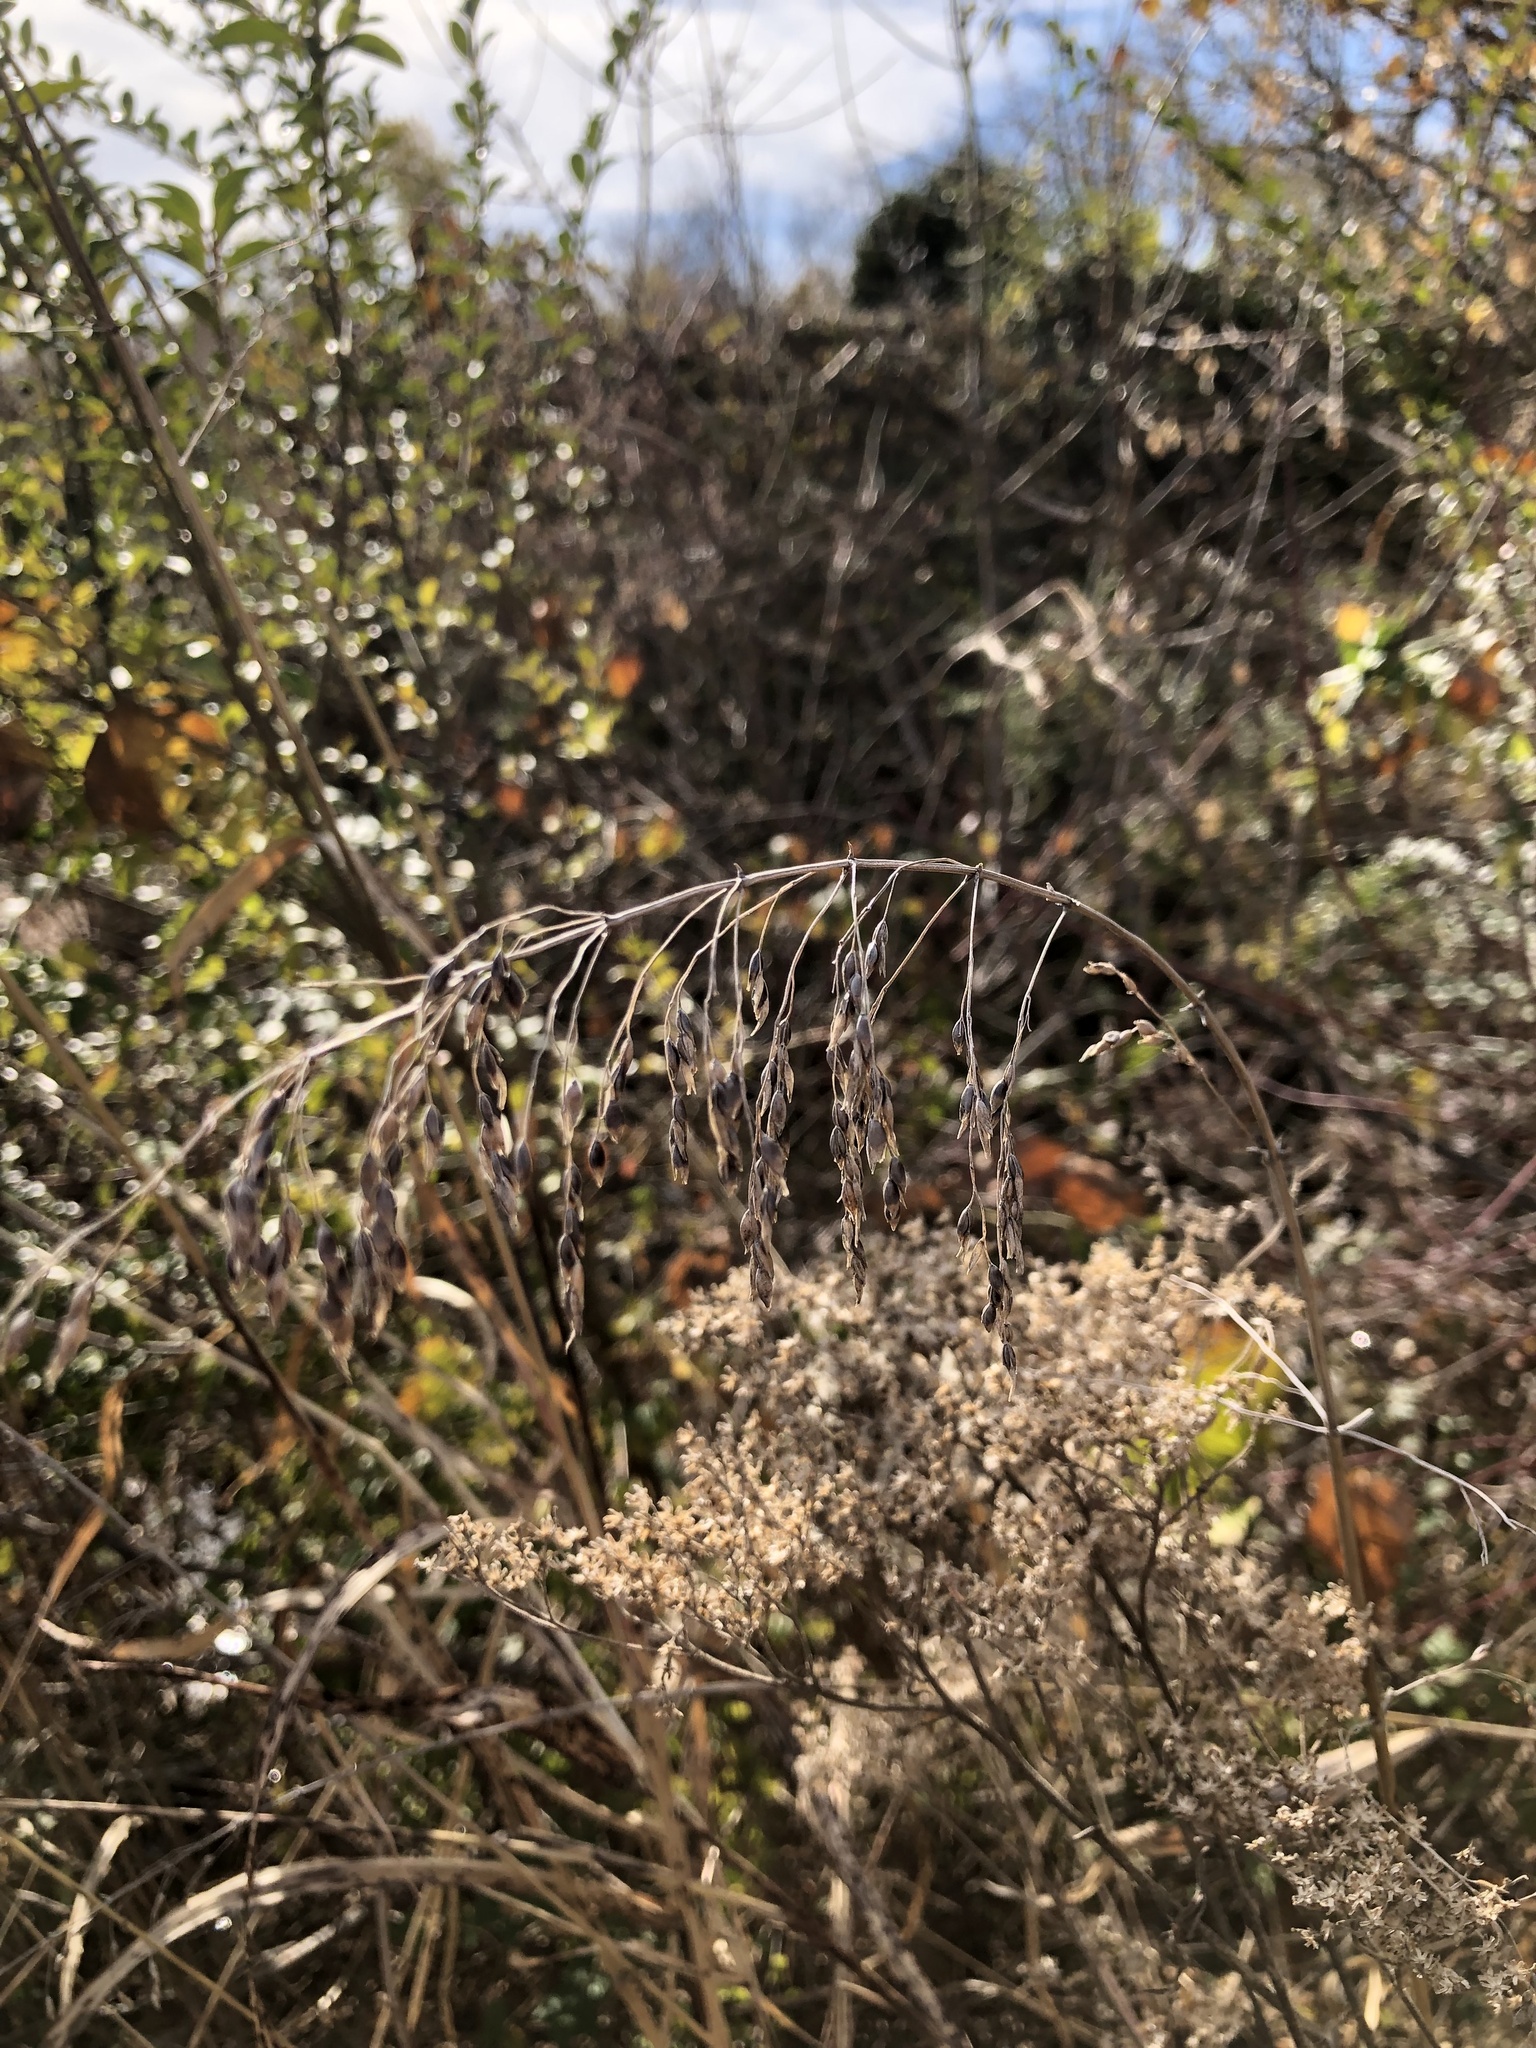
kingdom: Plantae
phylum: Tracheophyta
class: Liliopsida
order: Poales
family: Poaceae
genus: Sorghum
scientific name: Sorghum halepense
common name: Johnson-grass
